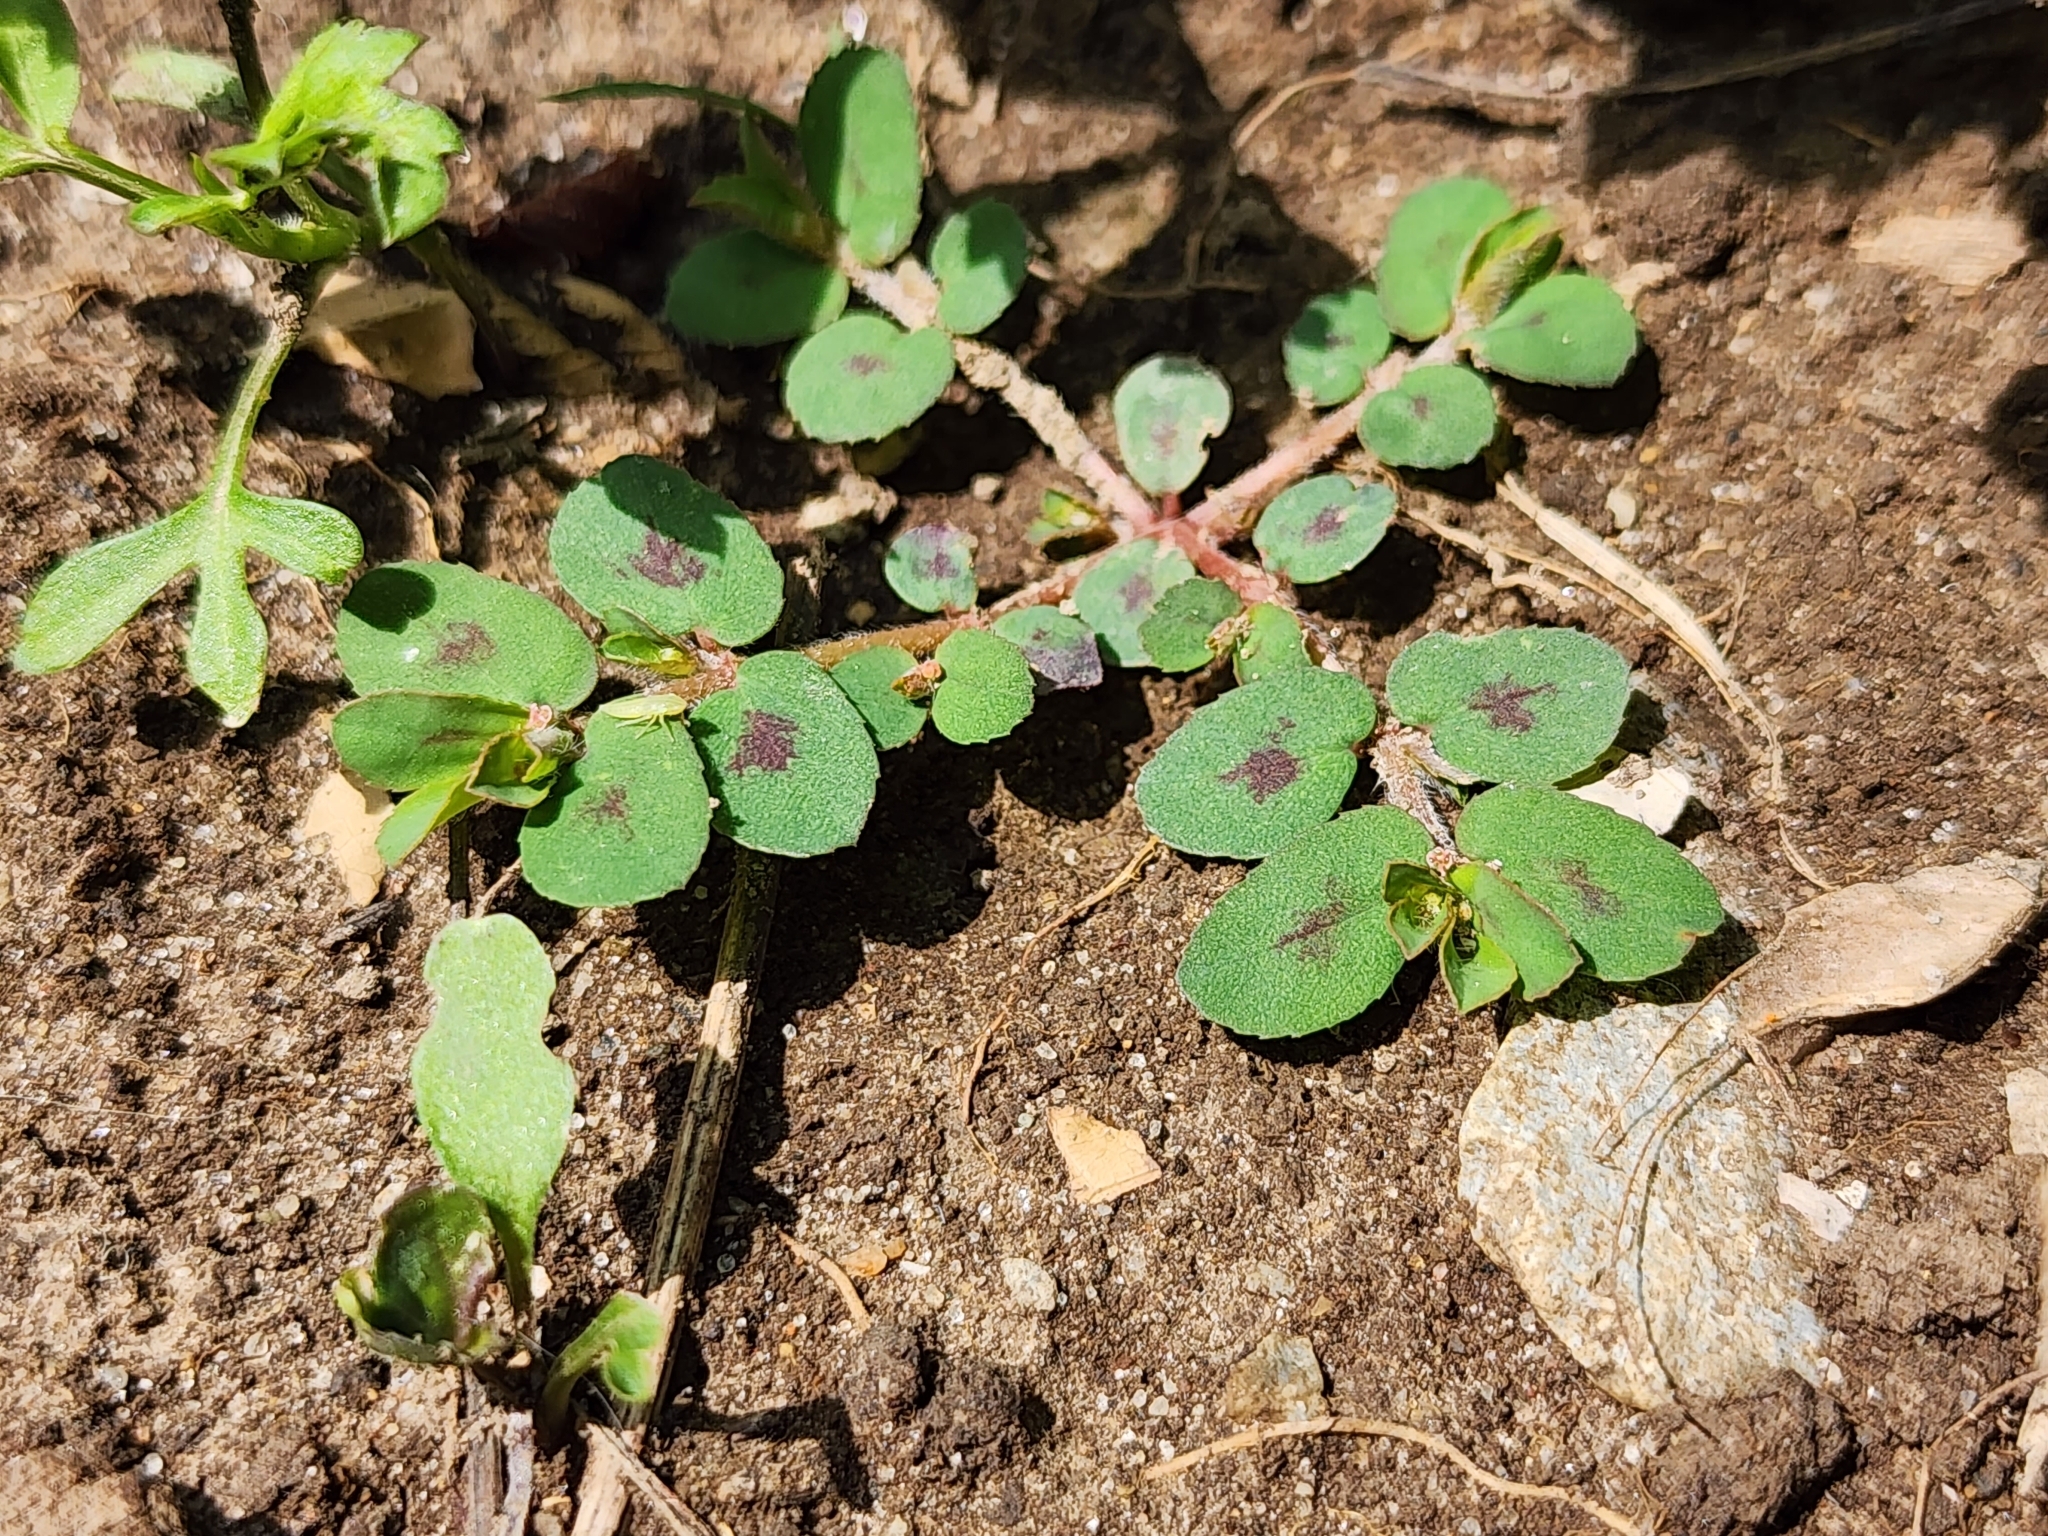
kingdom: Plantae
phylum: Tracheophyta
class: Magnoliopsida
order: Malpighiales
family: Euphorbiaceae
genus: Euphorbia
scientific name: Euphorbia maculata
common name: Spotted spurge
